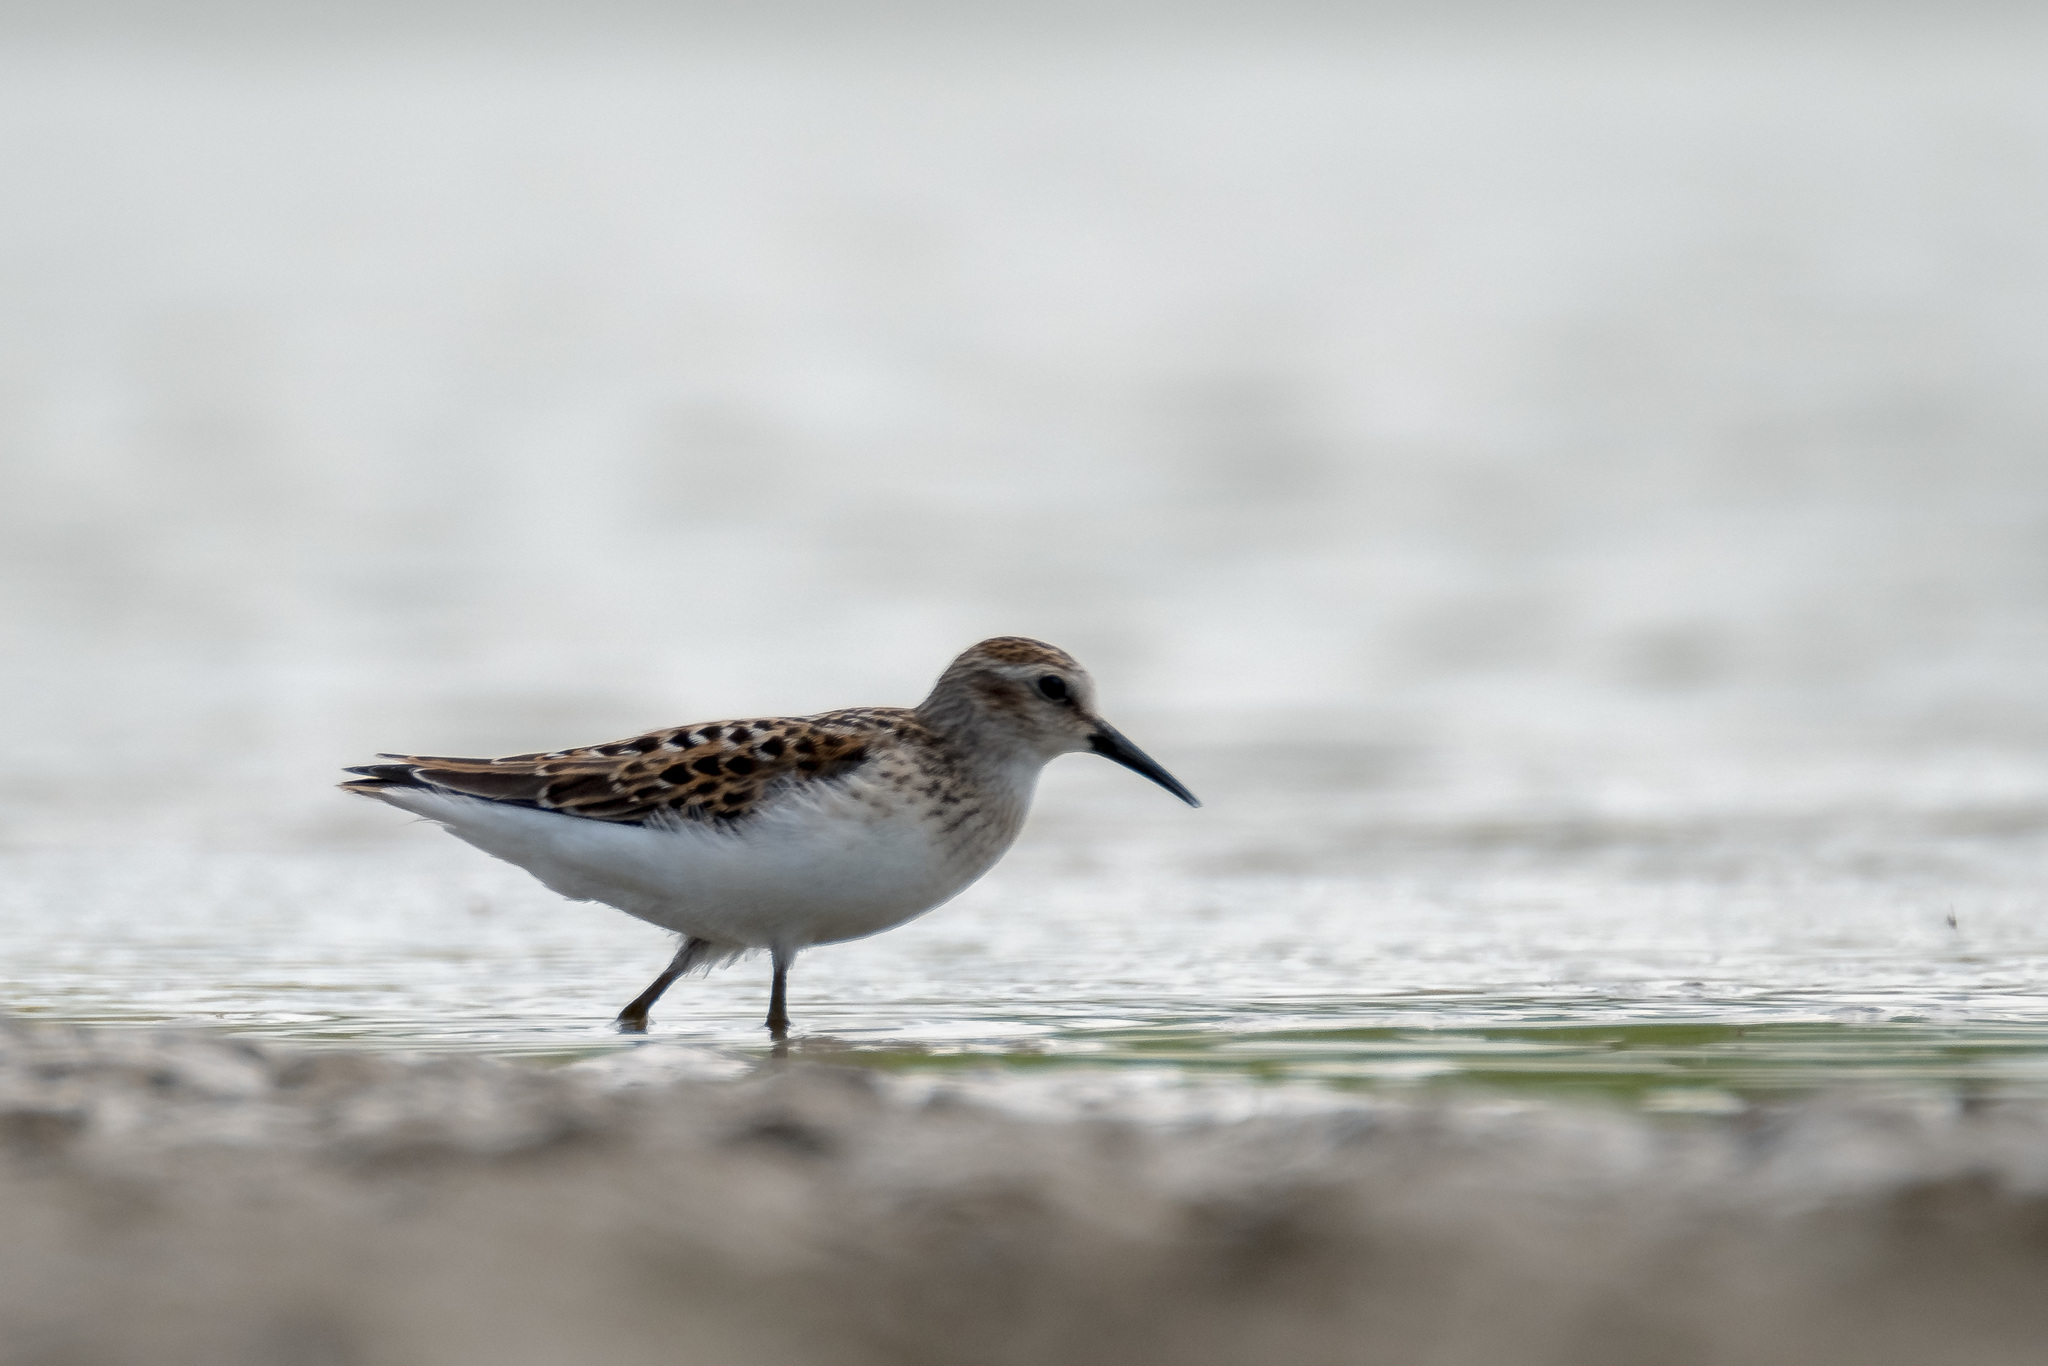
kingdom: Animalia
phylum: Chordata
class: Aves
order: Charadriiformes
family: Scolopacidae
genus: Calidris
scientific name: Calidris minutilla
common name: Least sandpiper
